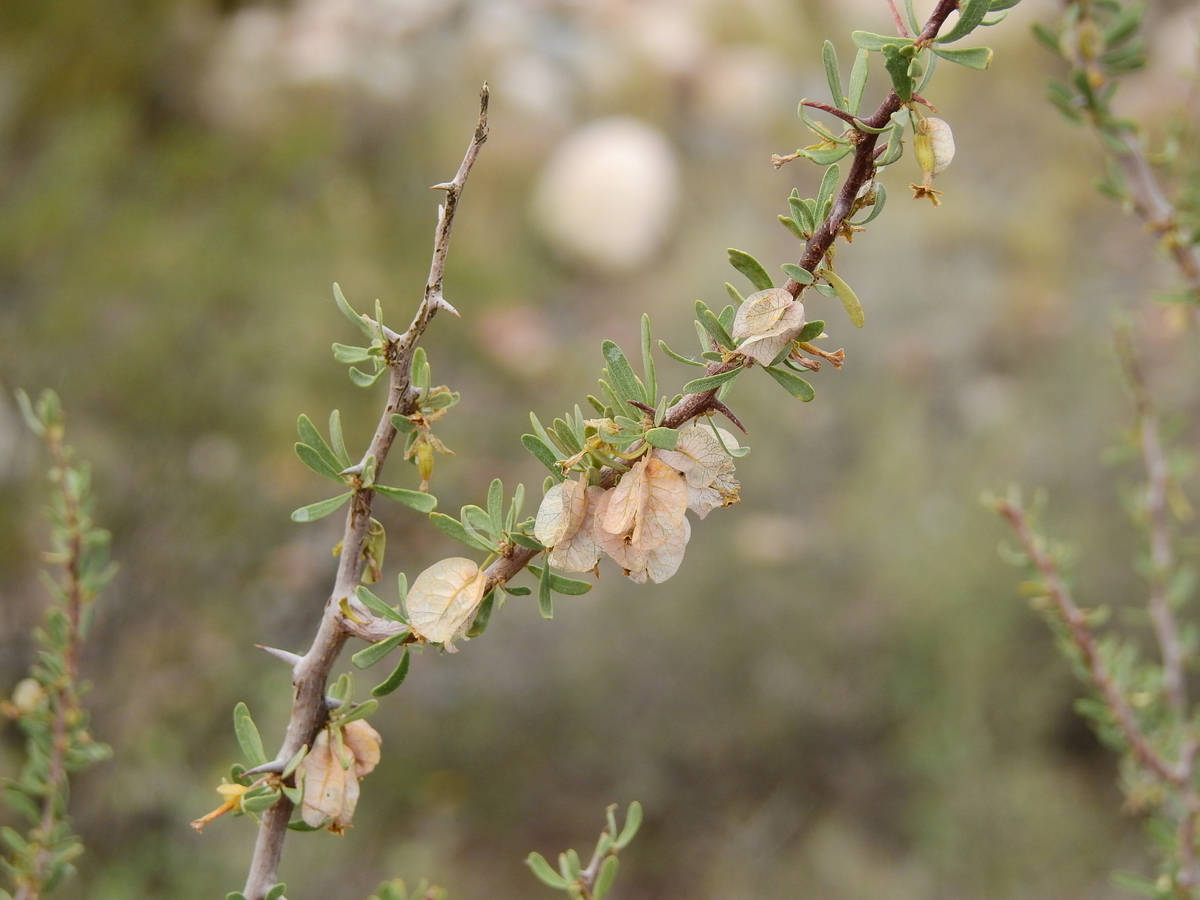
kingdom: Plantae
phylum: Tracheophyta
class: Magnoliopsida
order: Caryophyllales
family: Nyctaginaceae
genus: Bougainvillea
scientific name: Bougainvillea spinosa
